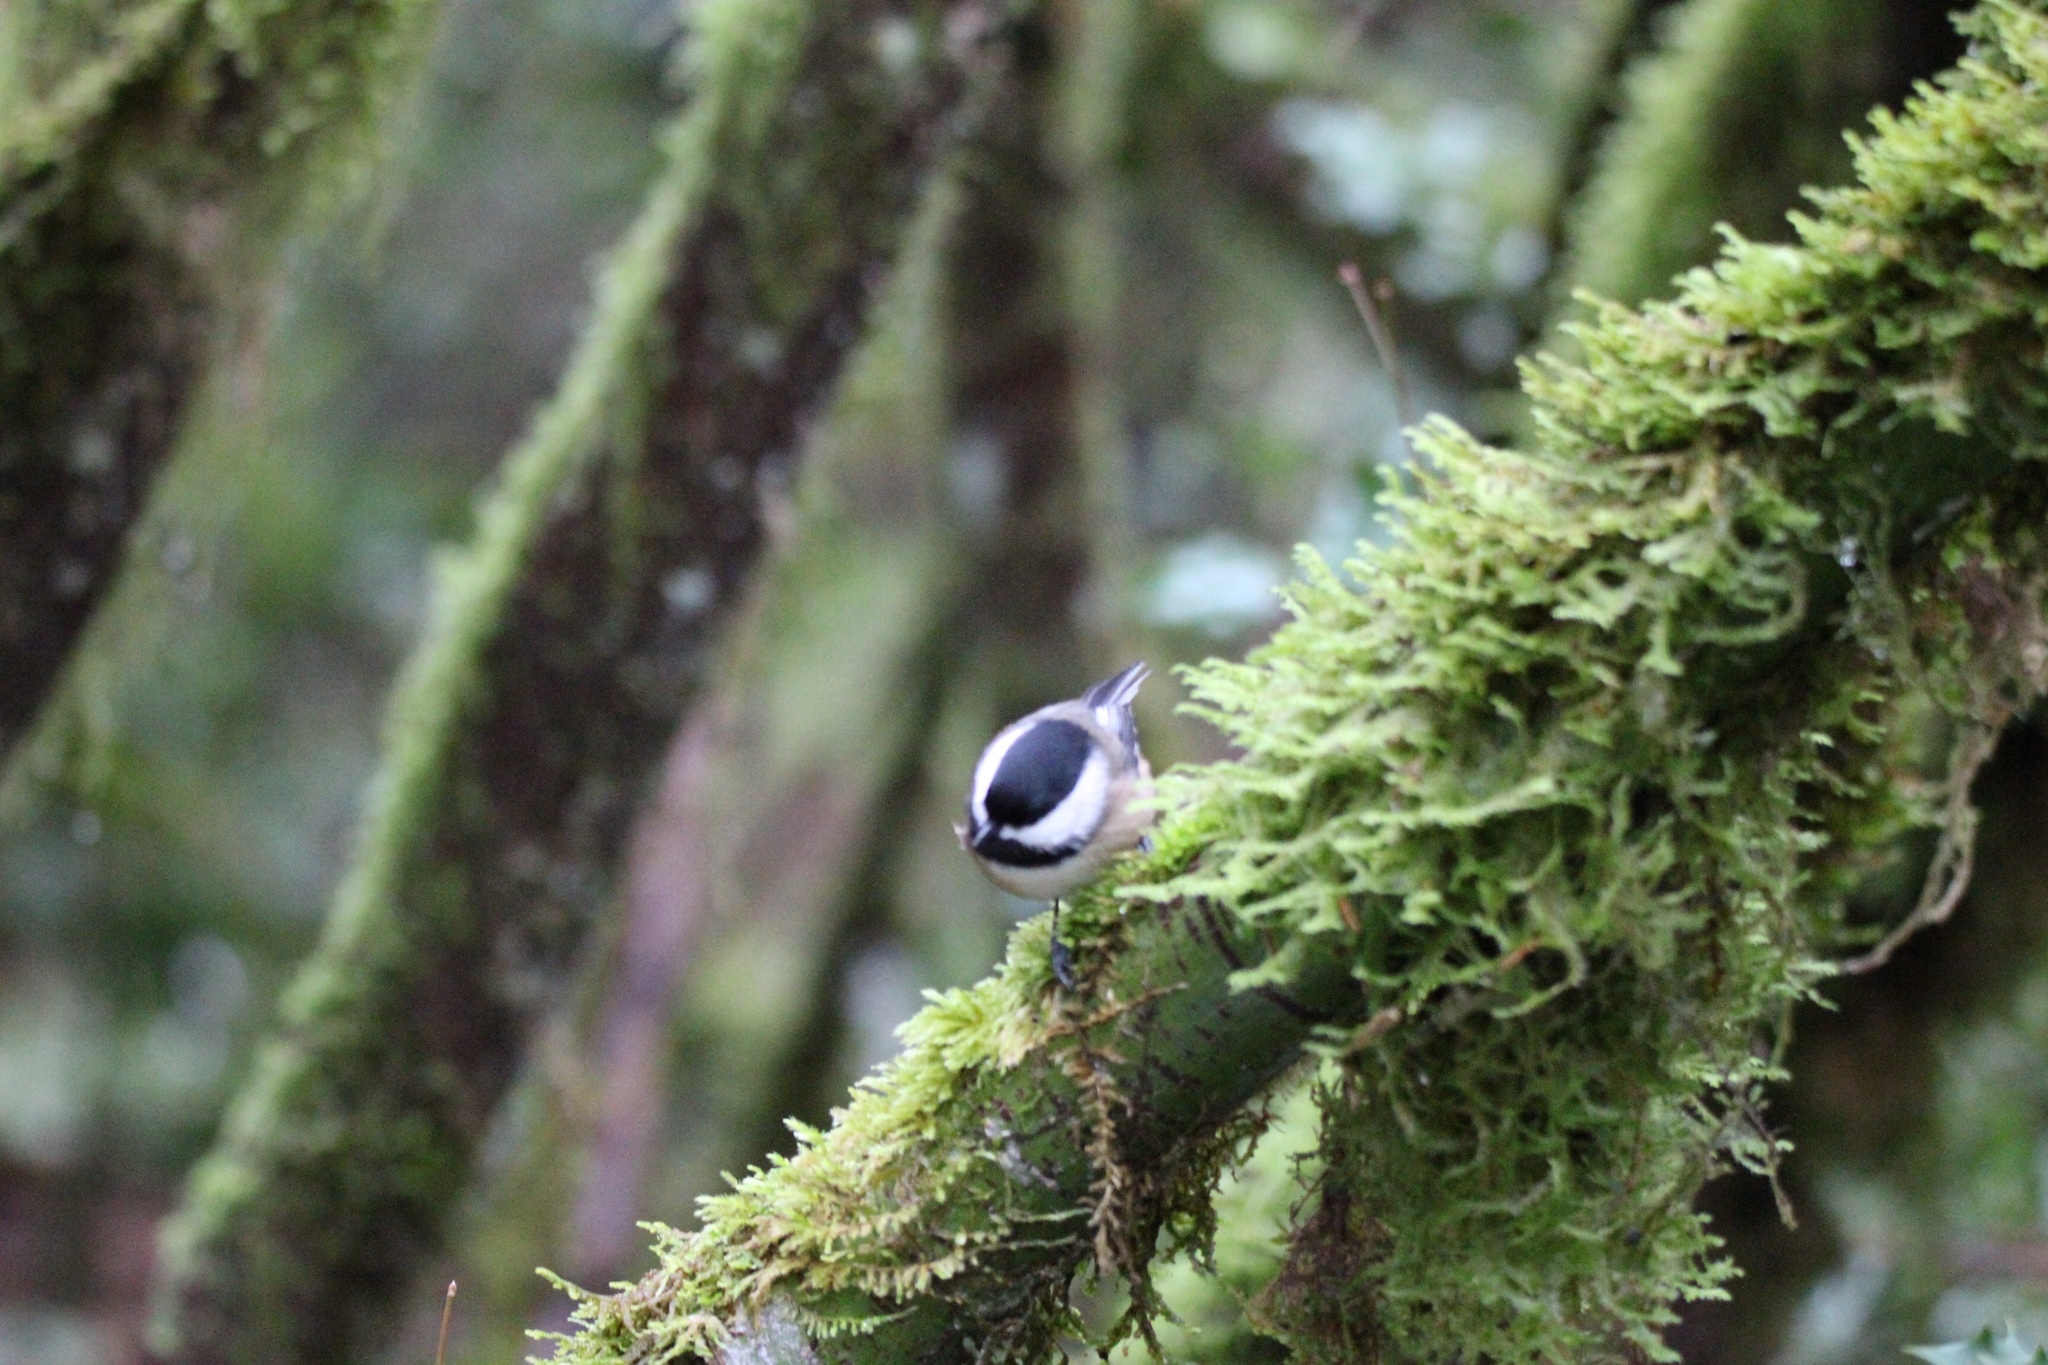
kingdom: Animalia
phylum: Chordata
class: Aves
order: Passeriformes
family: Paridae
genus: Poecile
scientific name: Poecile atricapillus
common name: Black-capped chickadee
